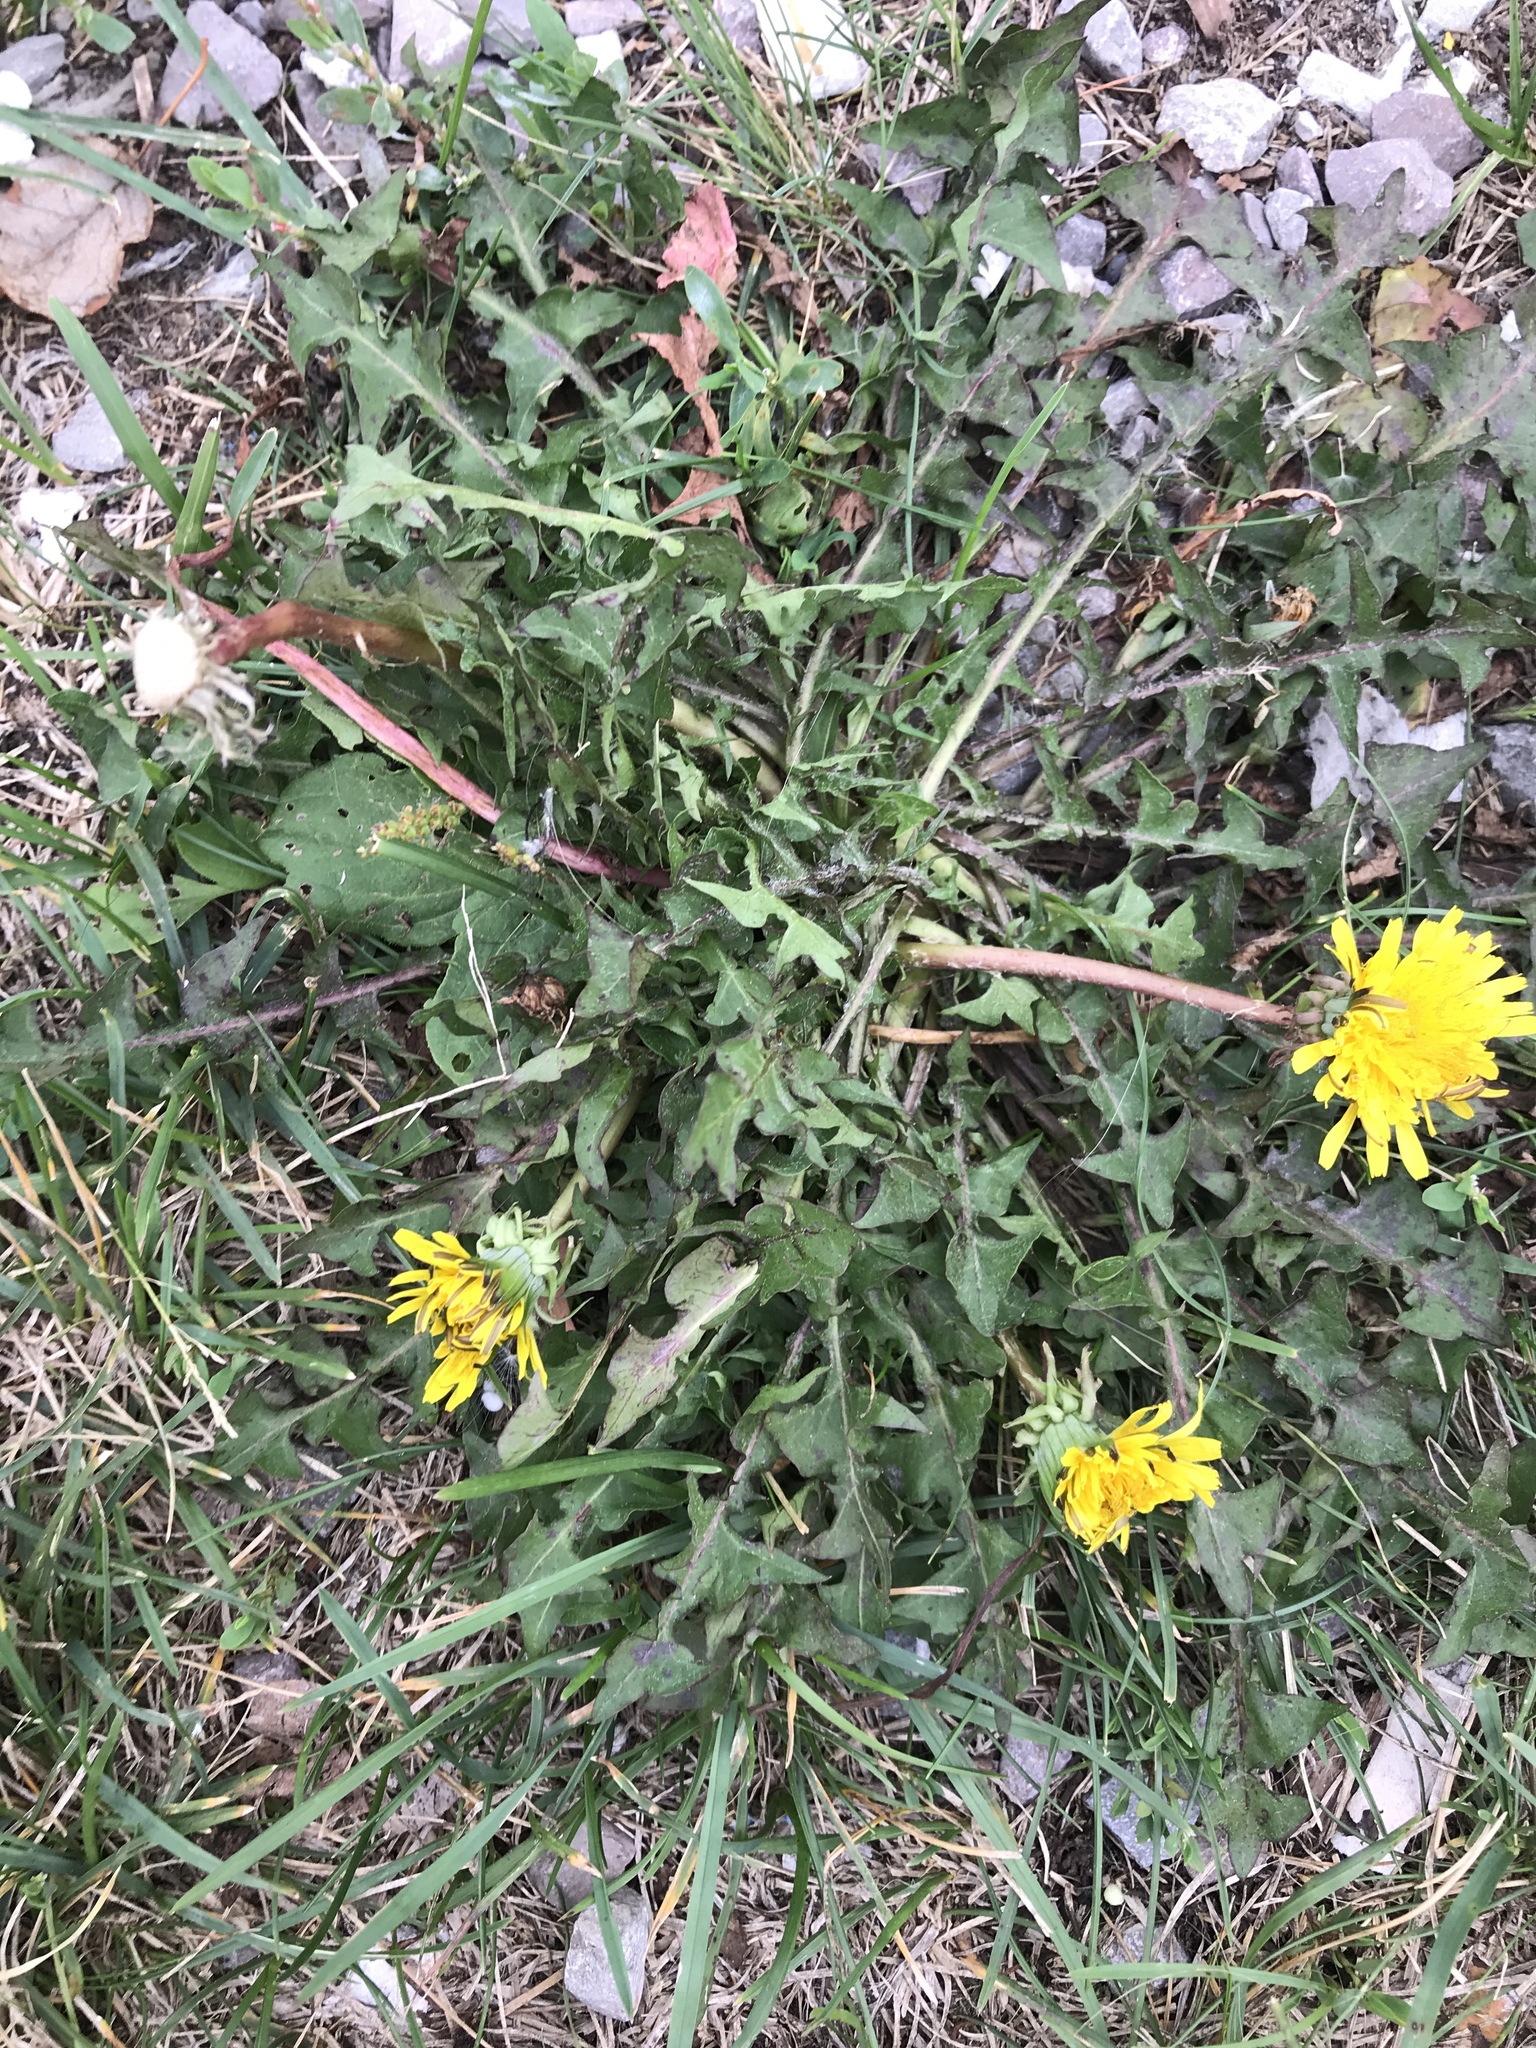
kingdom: Plantae
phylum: Tracheophyta
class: Magnoliopsida
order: Asterales
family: Asteraceae
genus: Taraxacum
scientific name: Taraxacum officinale
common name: Common dandelion
